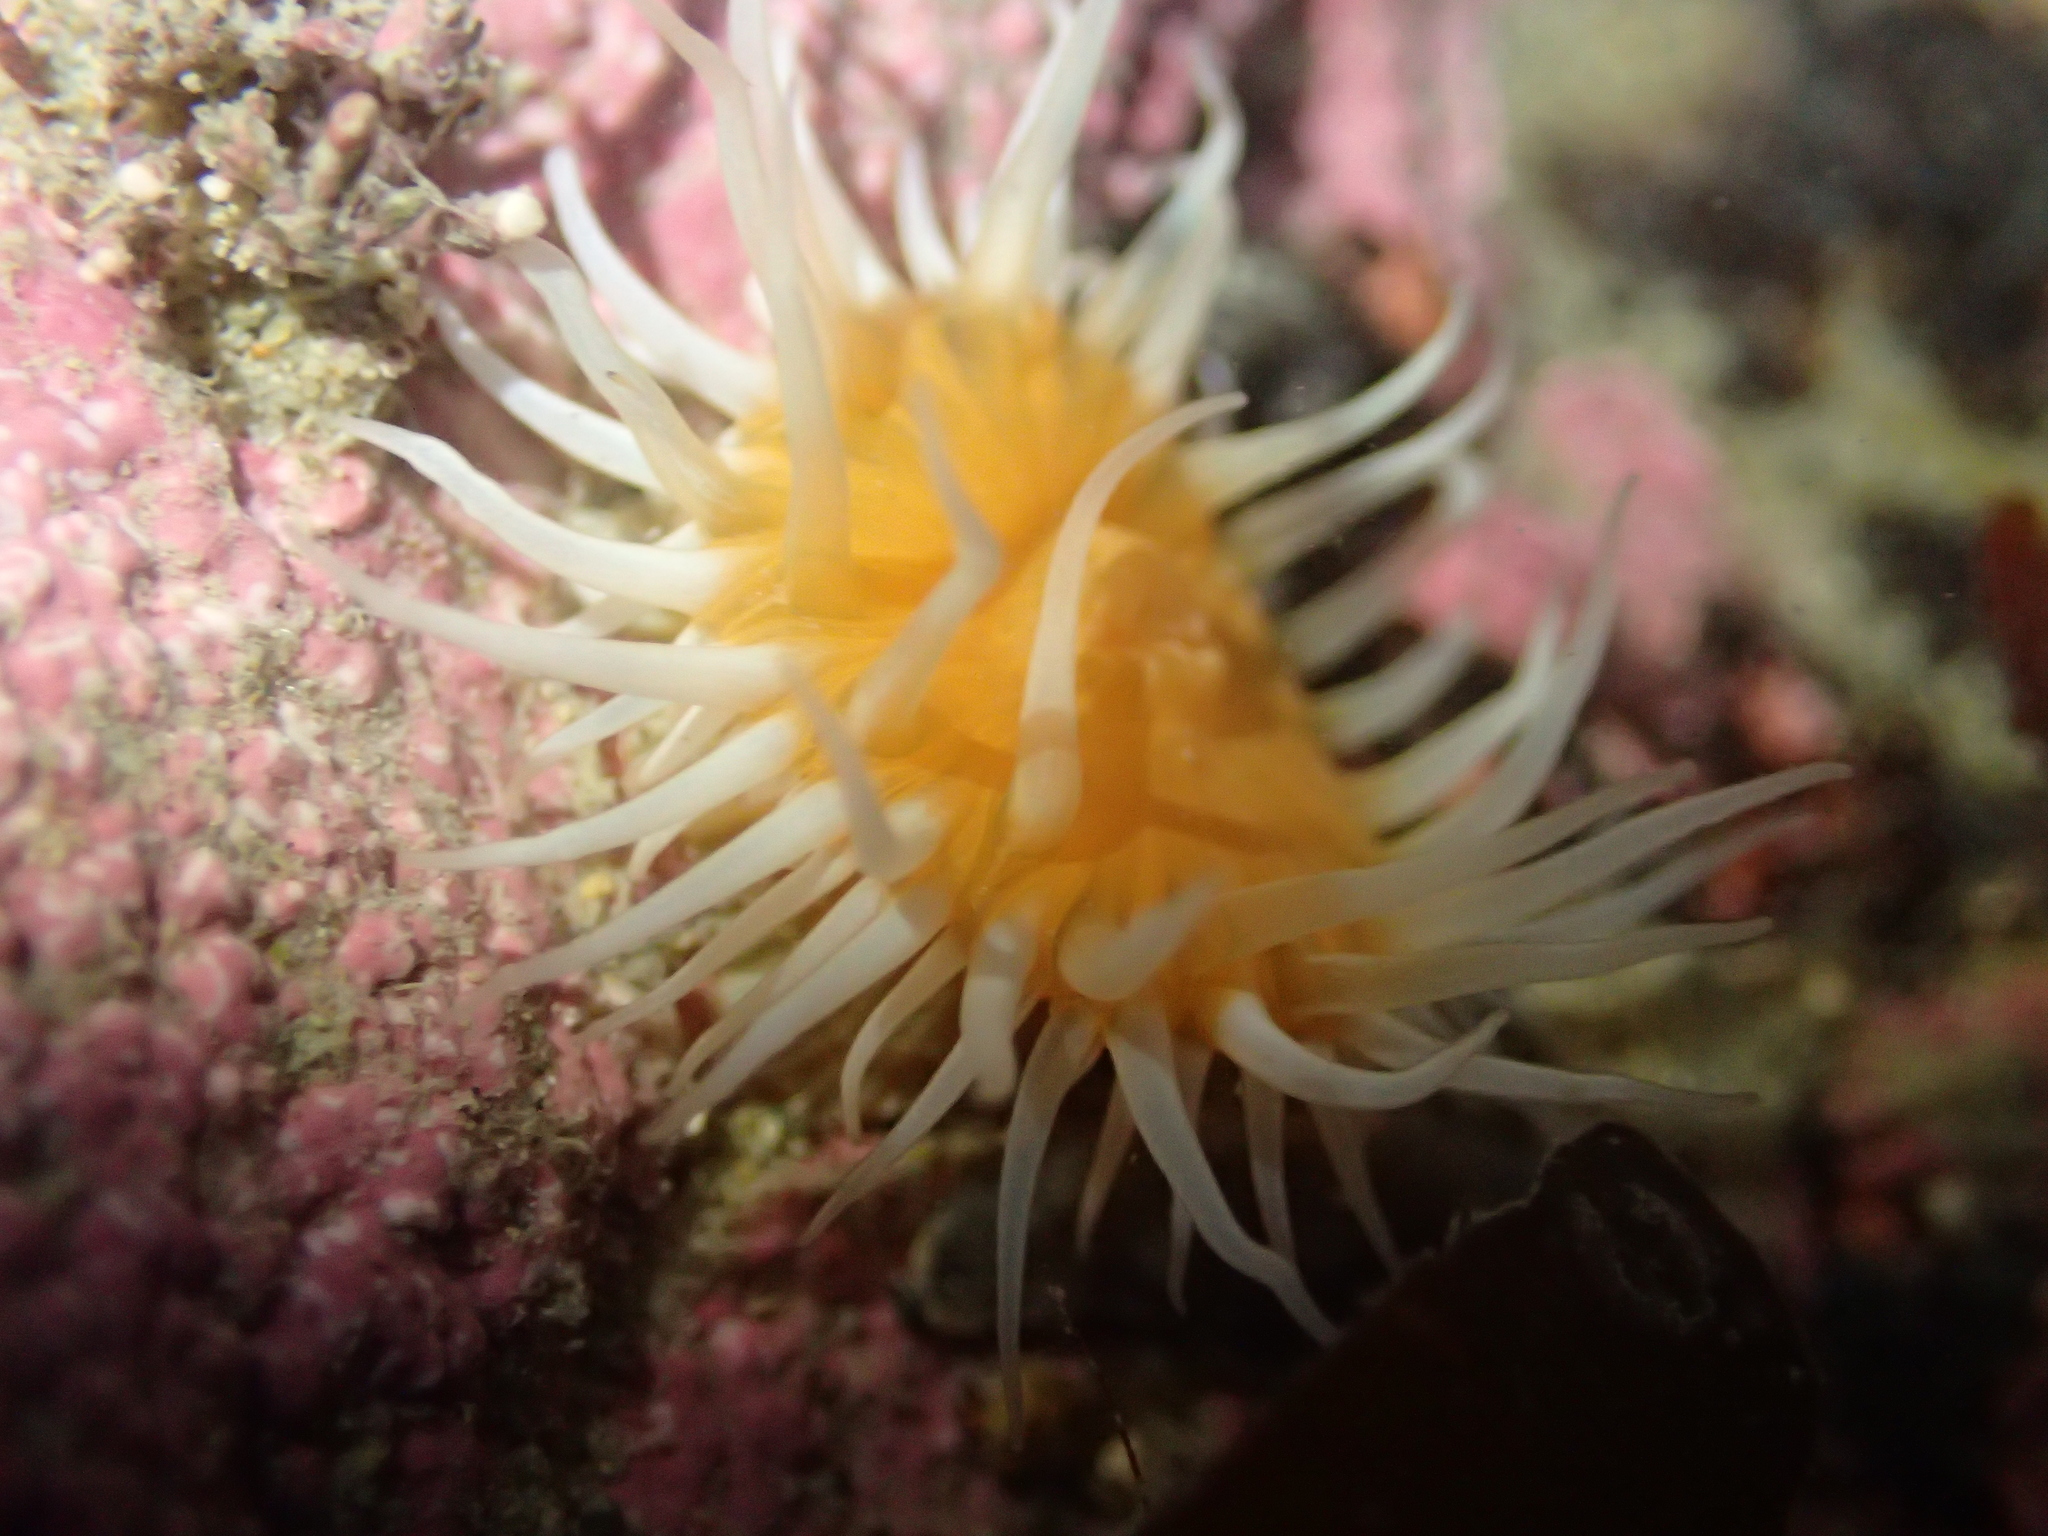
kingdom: Animalia
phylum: Cnidaria
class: Anthozoa
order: Actiniaria
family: Sagartiidae
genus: Anthothoe
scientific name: Anthothoe albocincta
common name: Orange striped anemone
